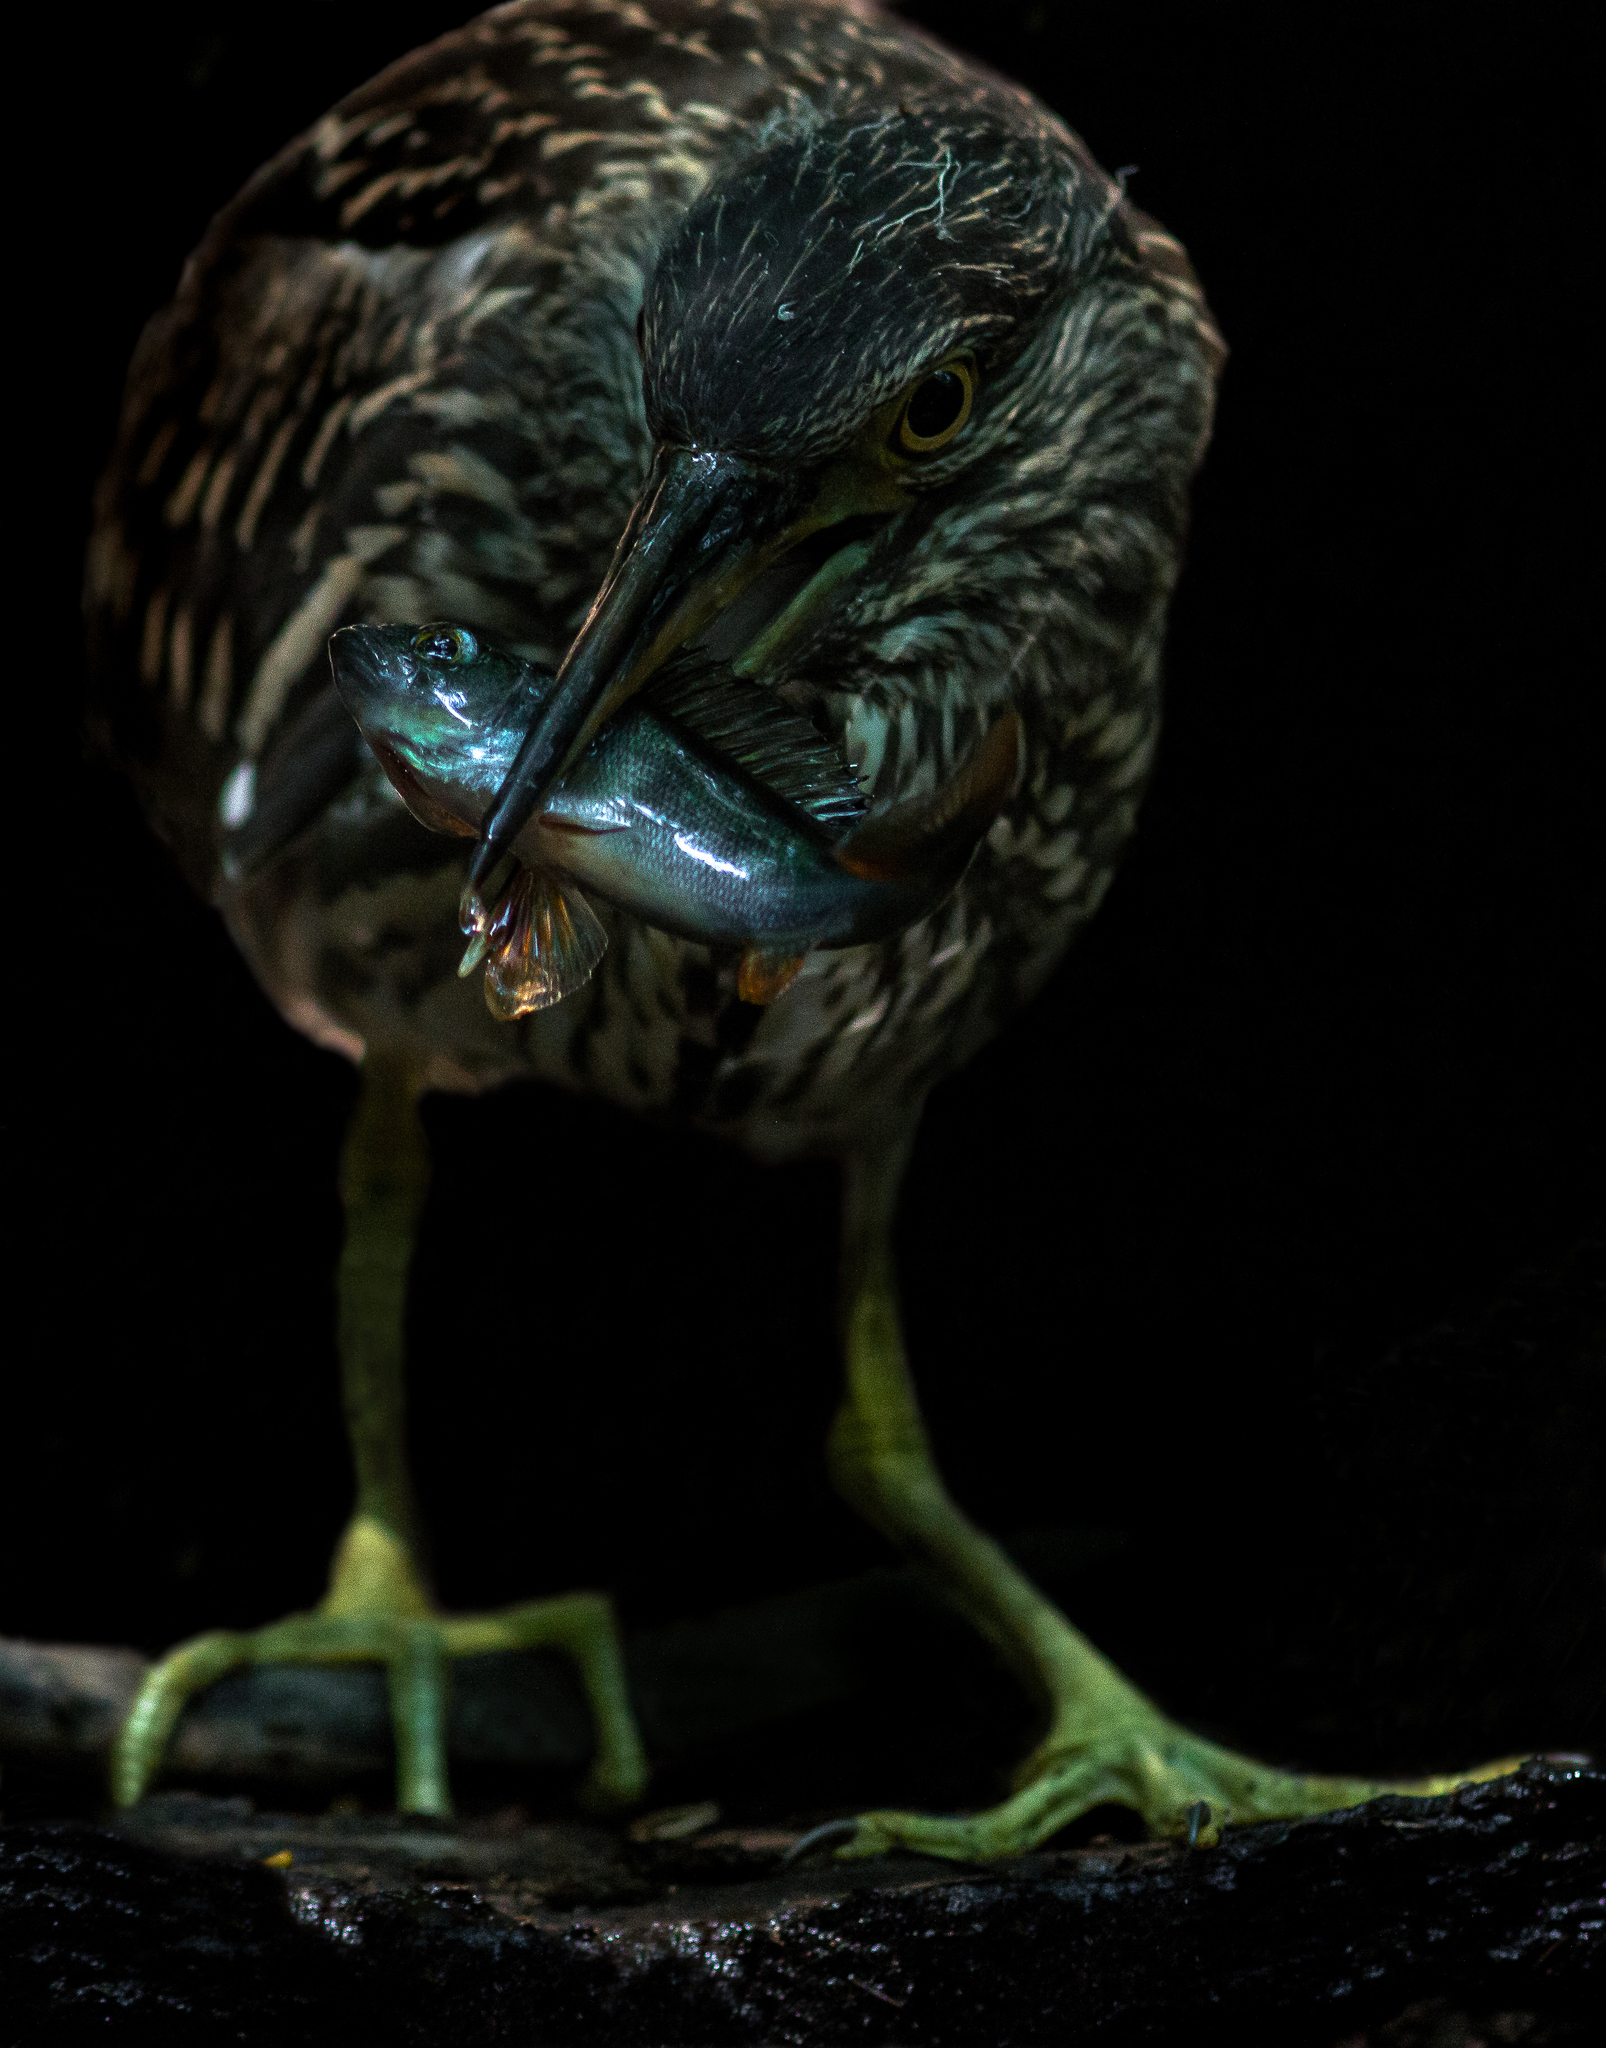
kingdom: Animalia
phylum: Chordata
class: Aves
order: Pelecaniformes
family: Ardeidae
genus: Nycticorax
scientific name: Nycticorax nycticorax
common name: Black-crowned night heron
